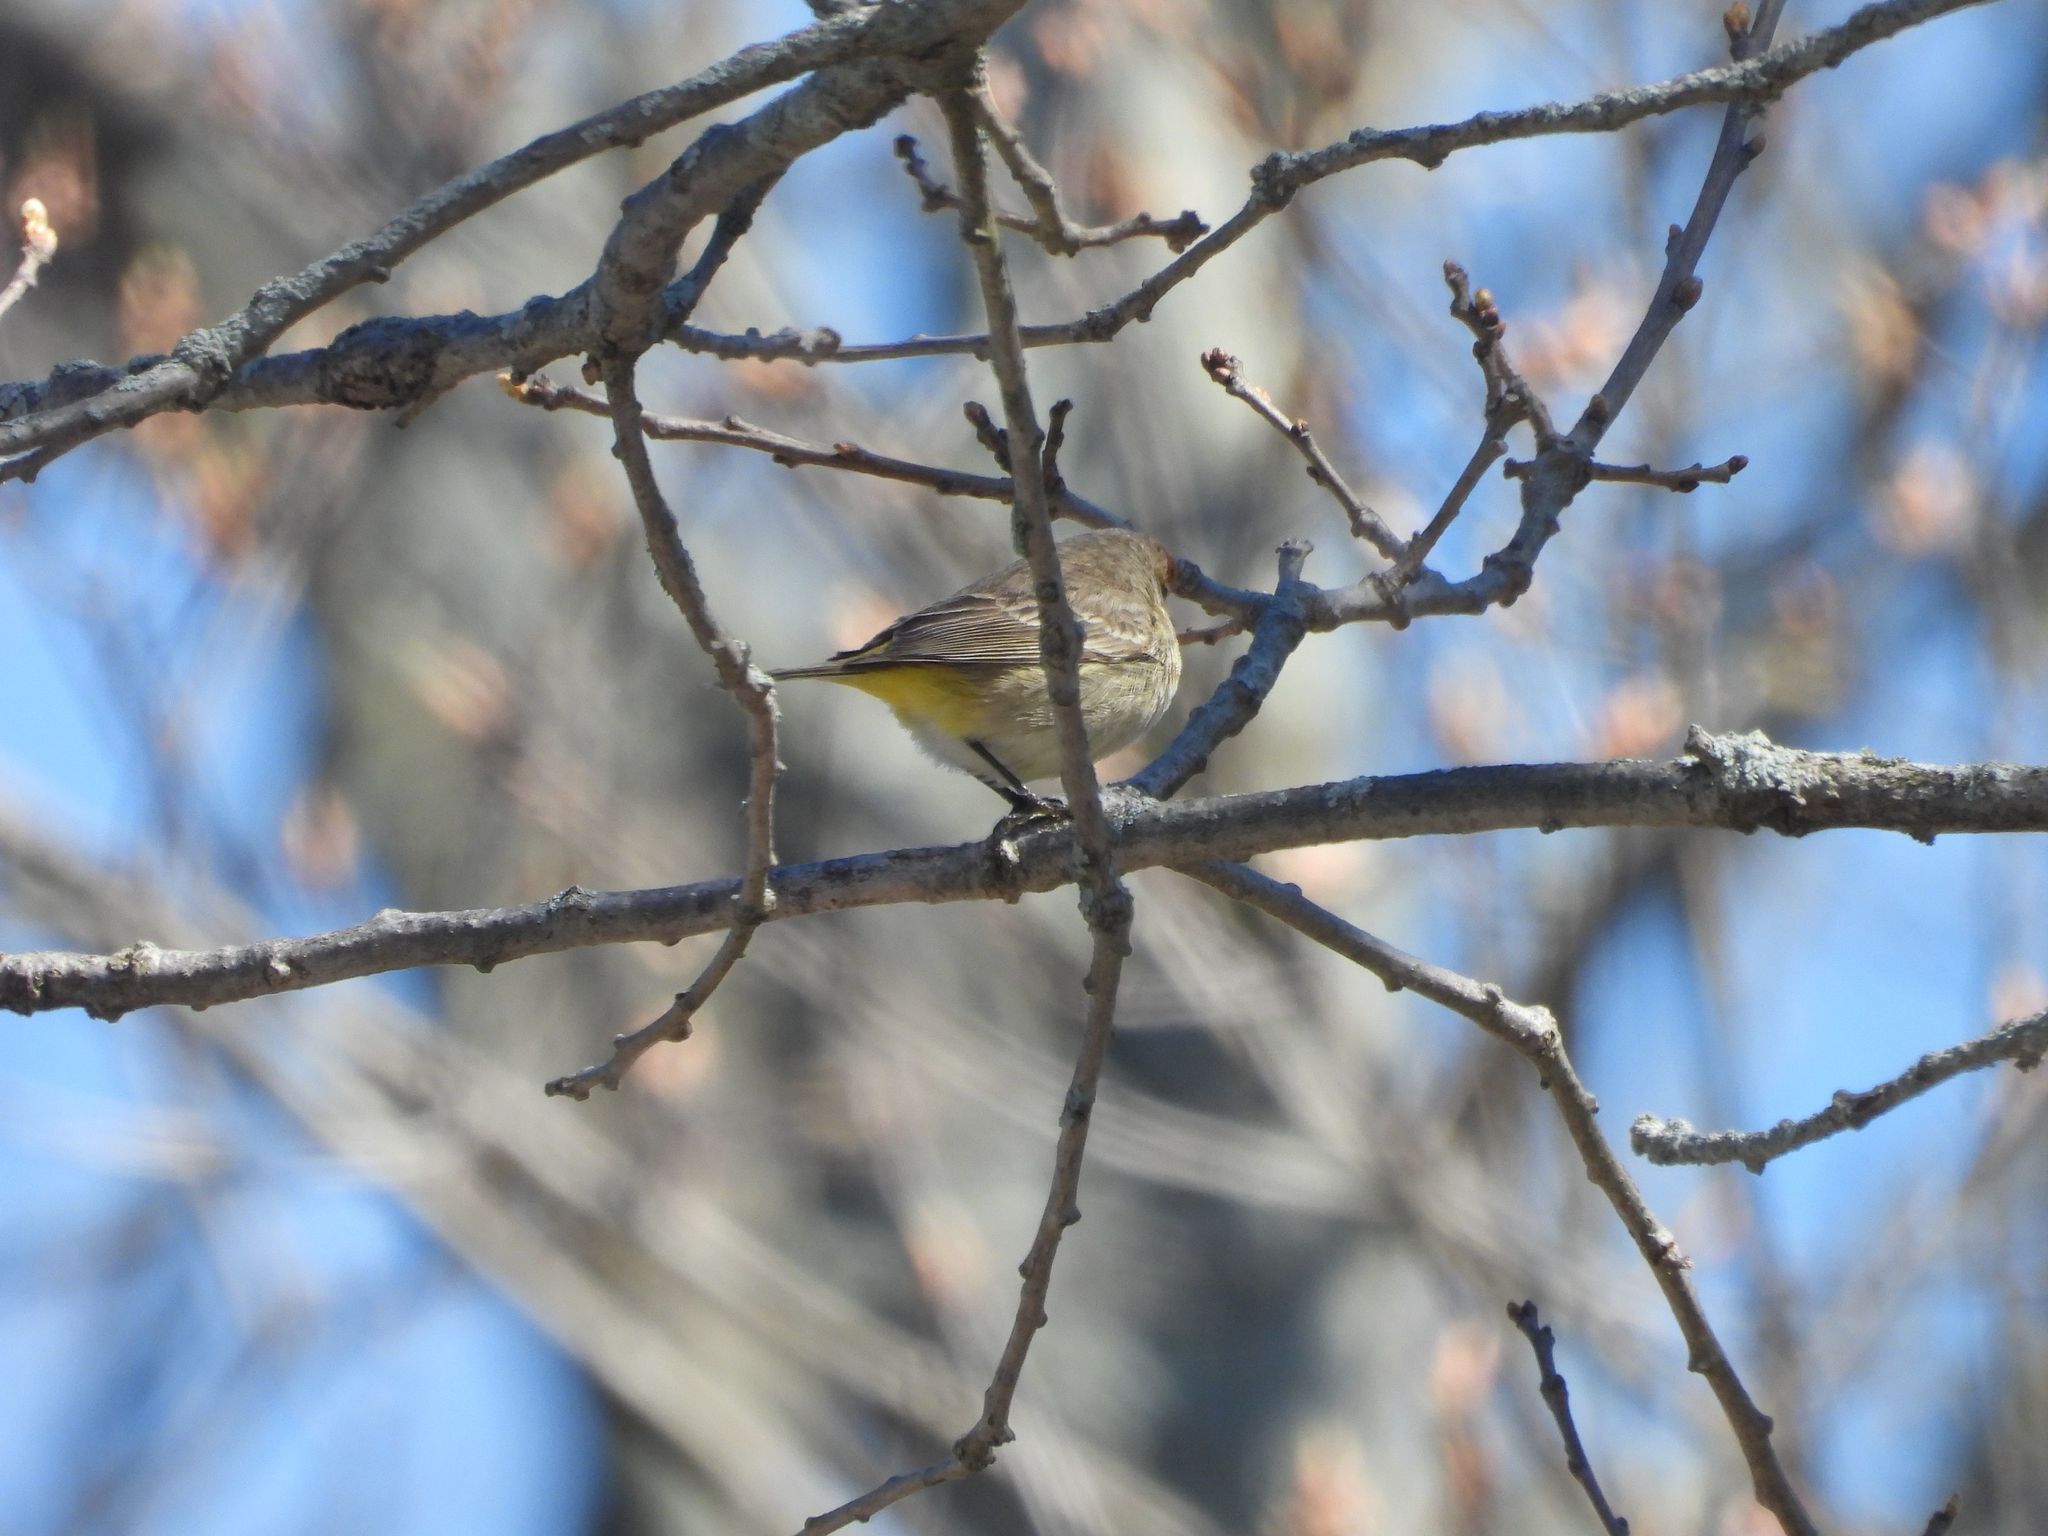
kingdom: Animalia
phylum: Chordata
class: Aves
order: Passeriformes
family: Parulidae
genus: Setophaga
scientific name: Setophaga palmarum
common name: Palm warbler
